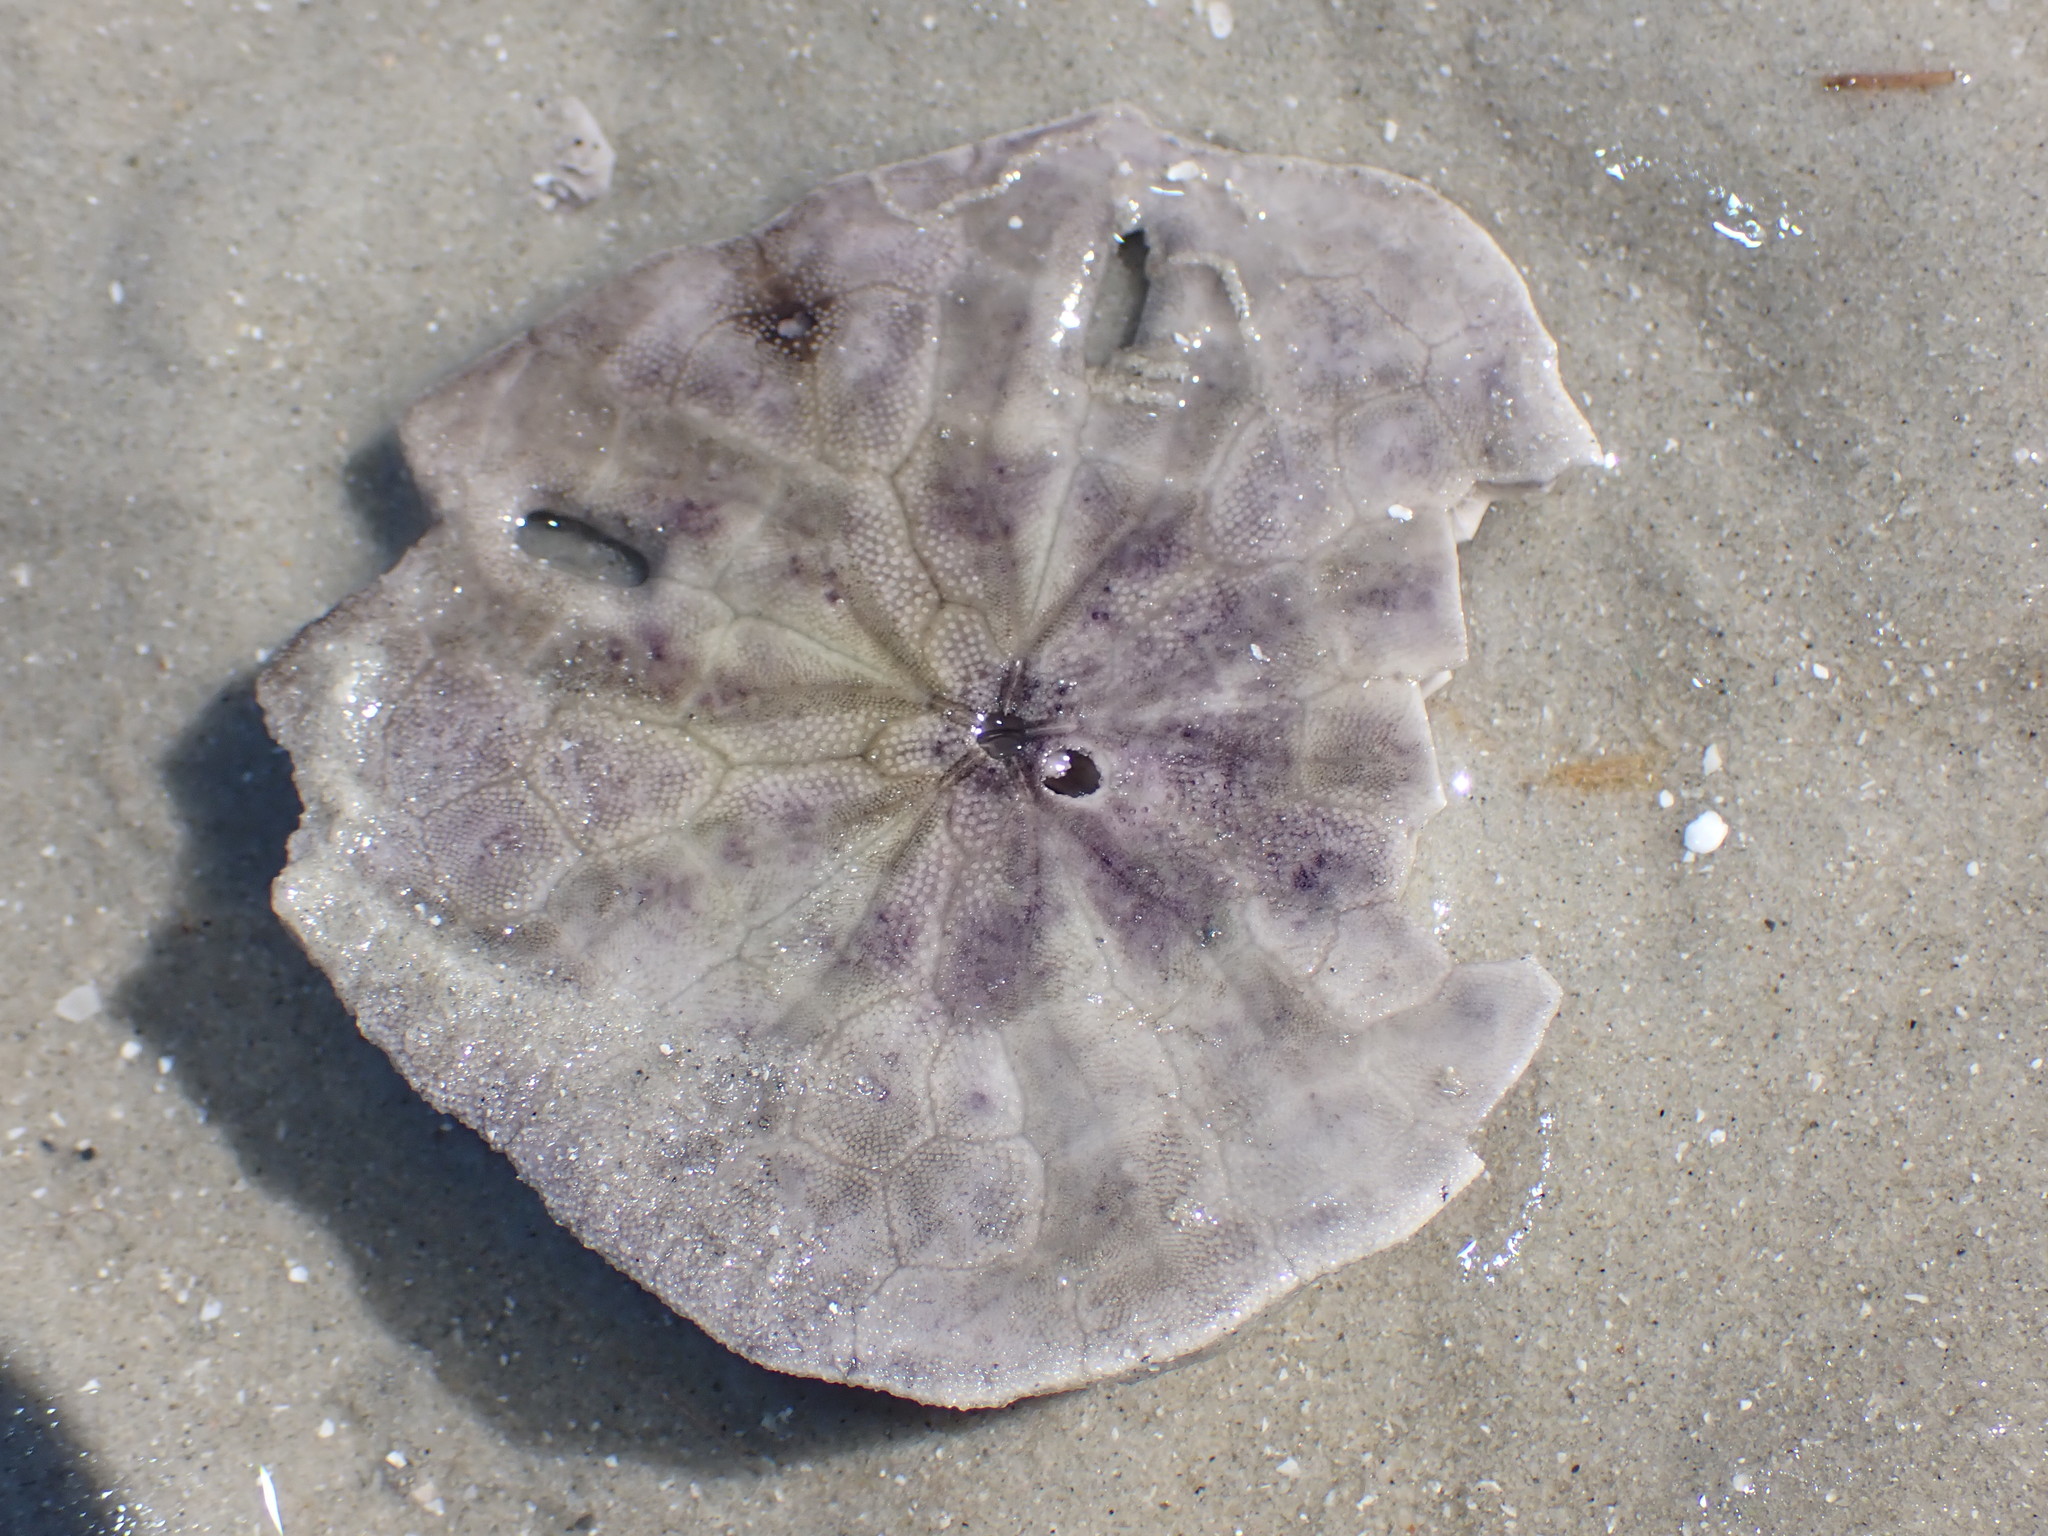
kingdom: Animalia
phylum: Echinodermata
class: Echinoidea
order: Echinolampadacea
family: Astriclypeidae
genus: Echinodiscus
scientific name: Echinodiscus andamanensis
